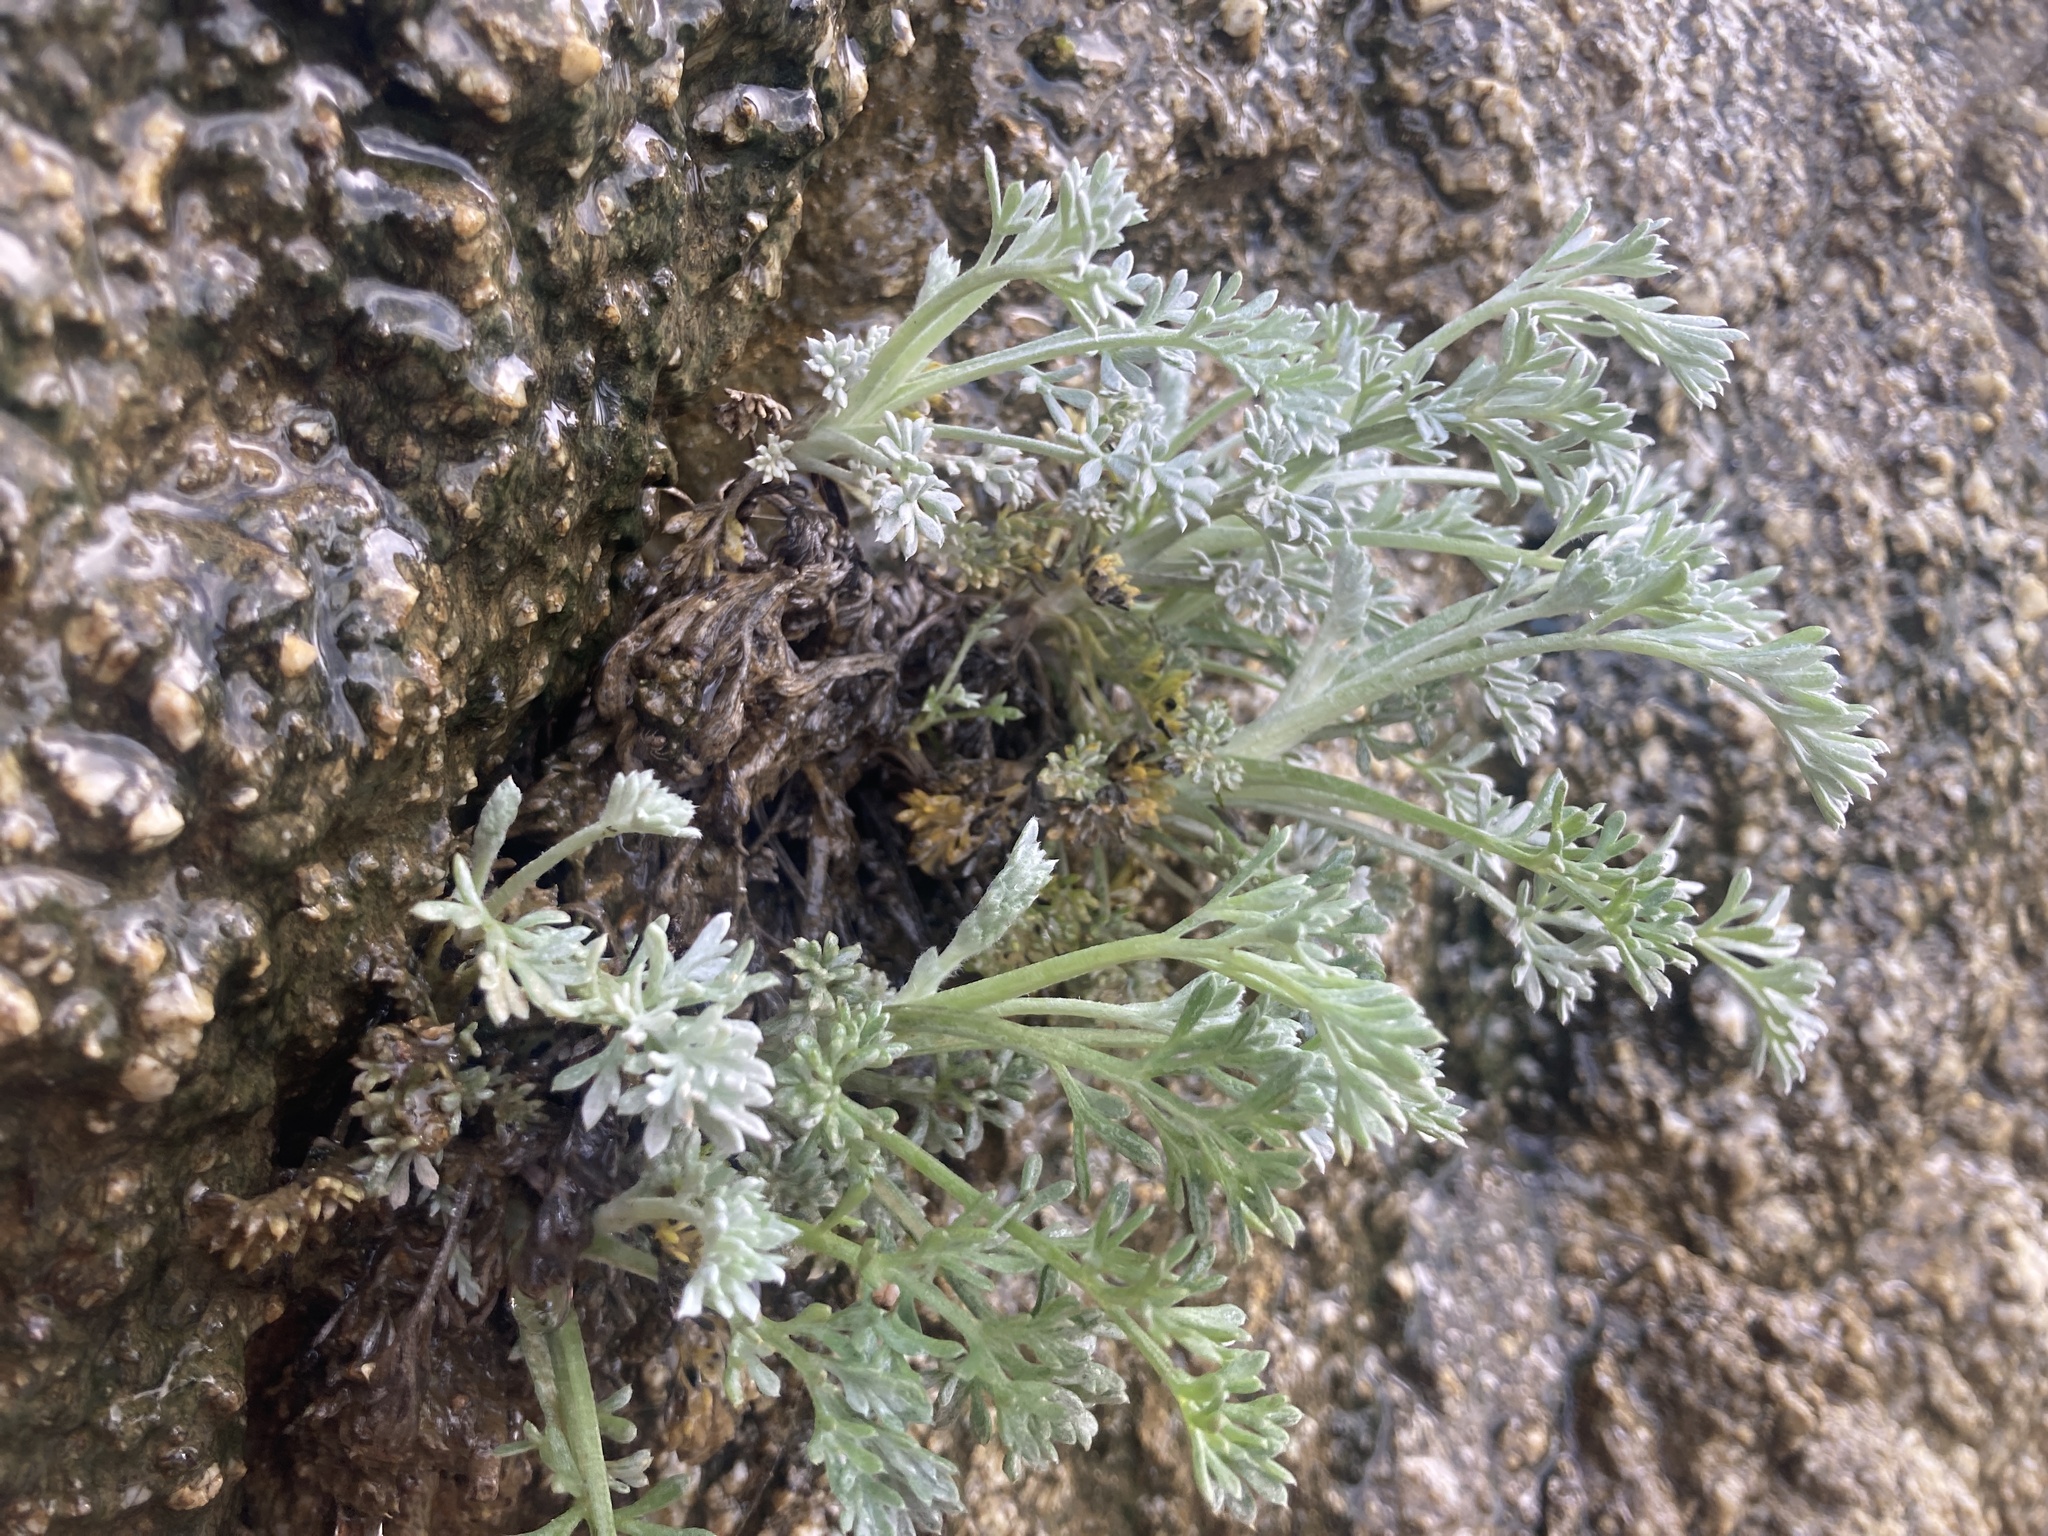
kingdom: Plantae
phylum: Tracheophyta
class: Magnoliopsida
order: Asterales
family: Asteraceae
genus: Artemisia
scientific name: Artemisia pycnocephala
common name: Coastal sagewort
